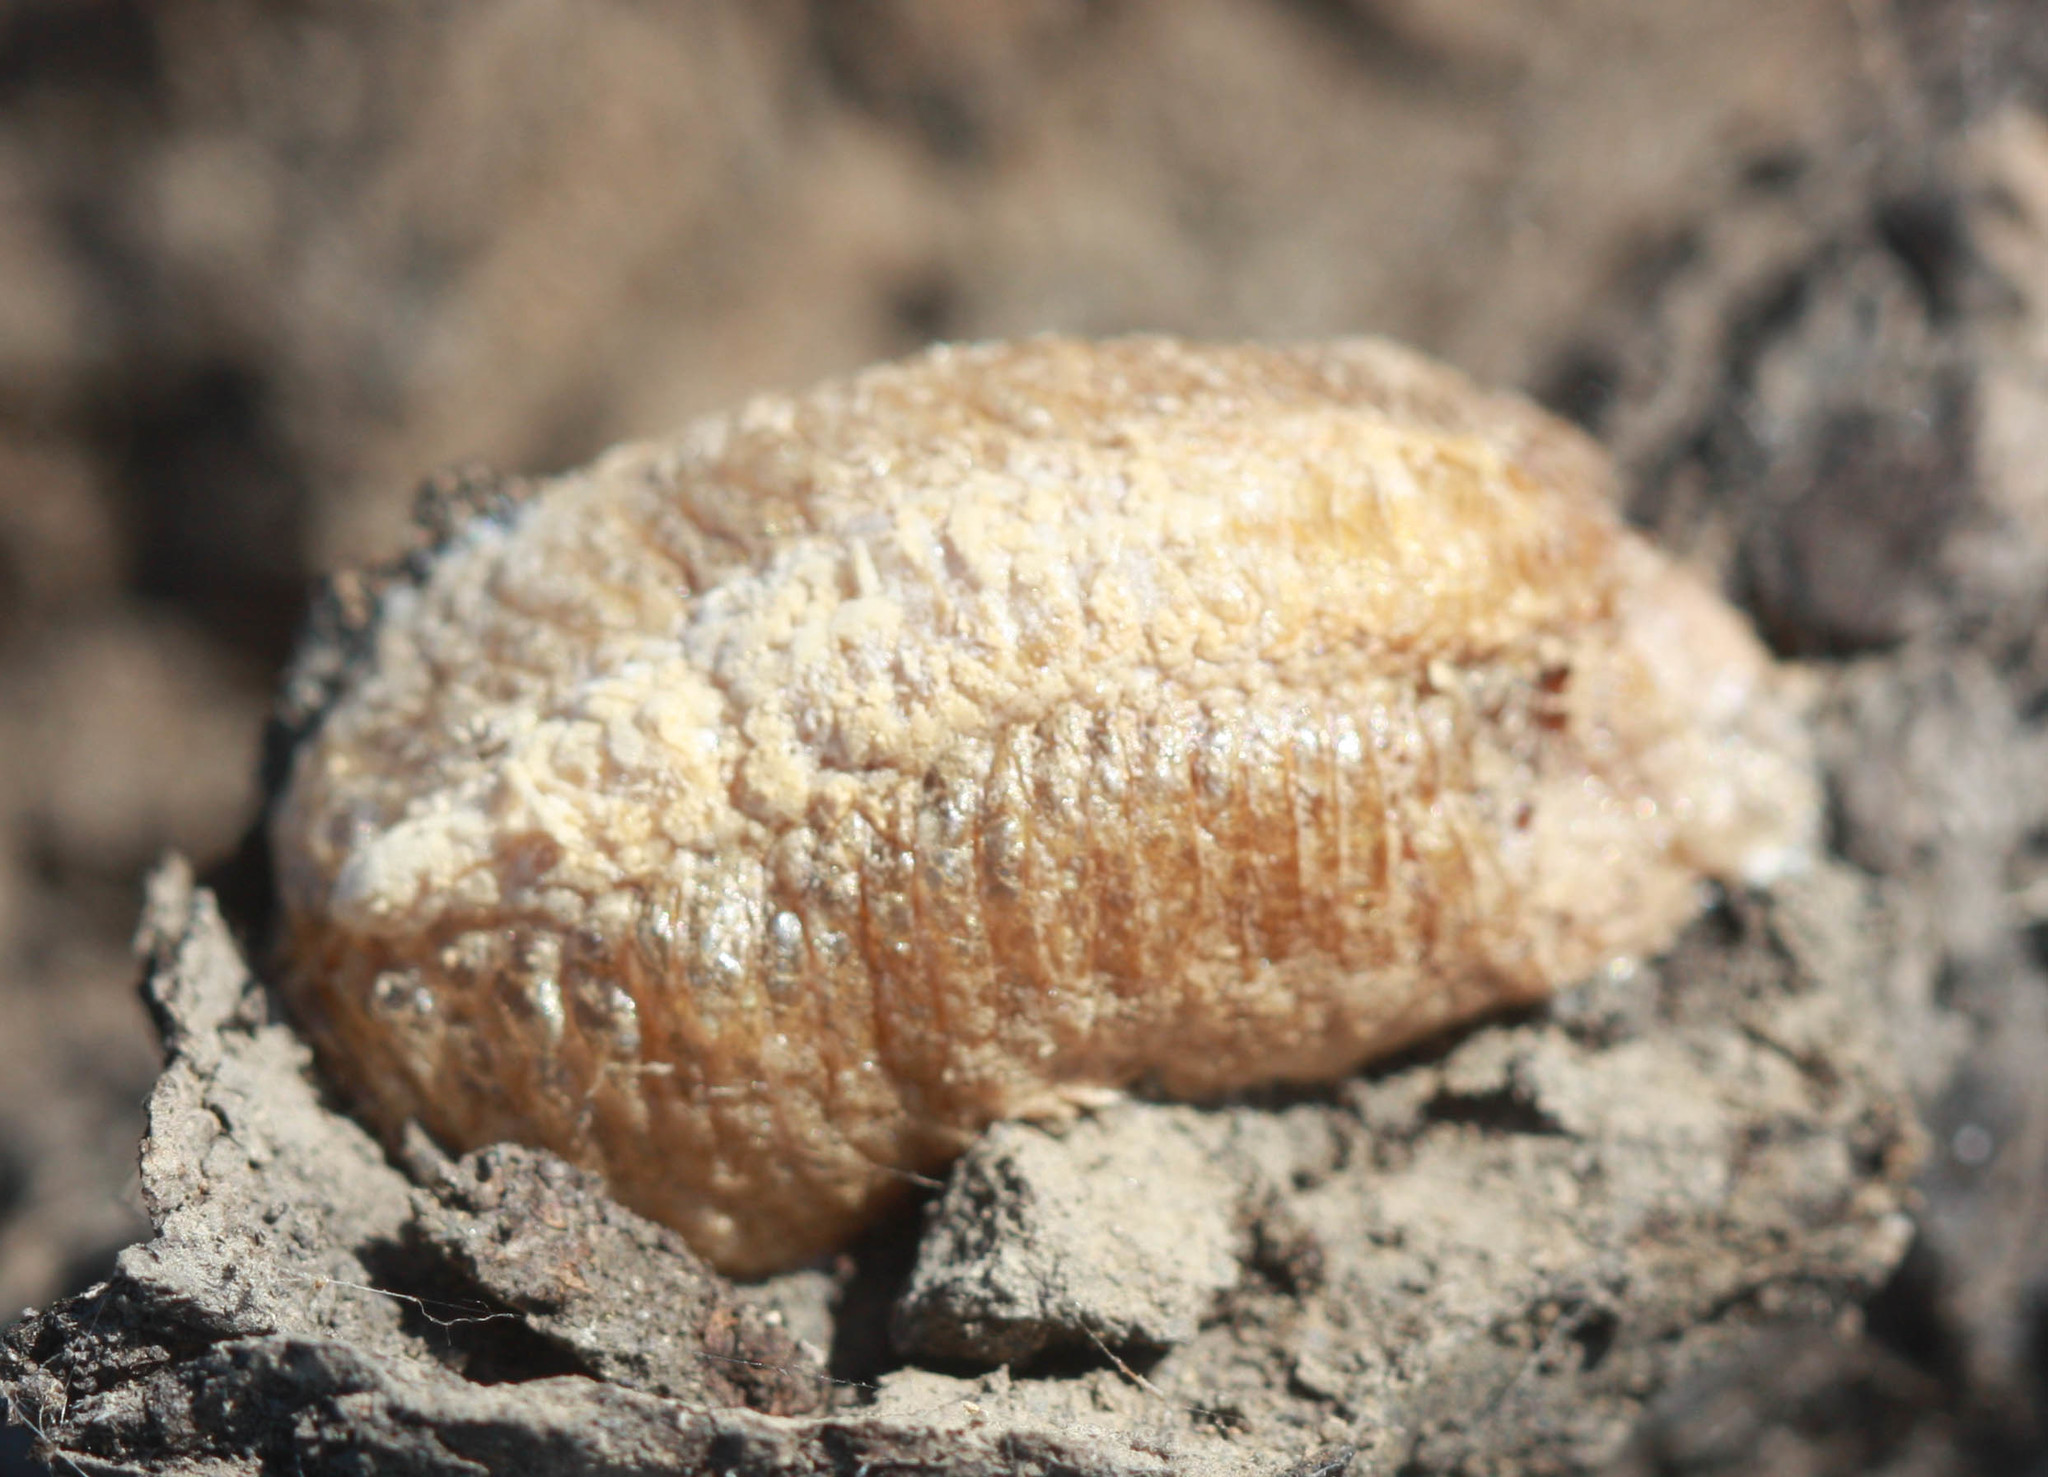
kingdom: Animalia
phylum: Arthropoda
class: Insecta
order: Mantodea
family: Mantidae
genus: Mantis
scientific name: Mantis religiosa
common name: Praying mantis
